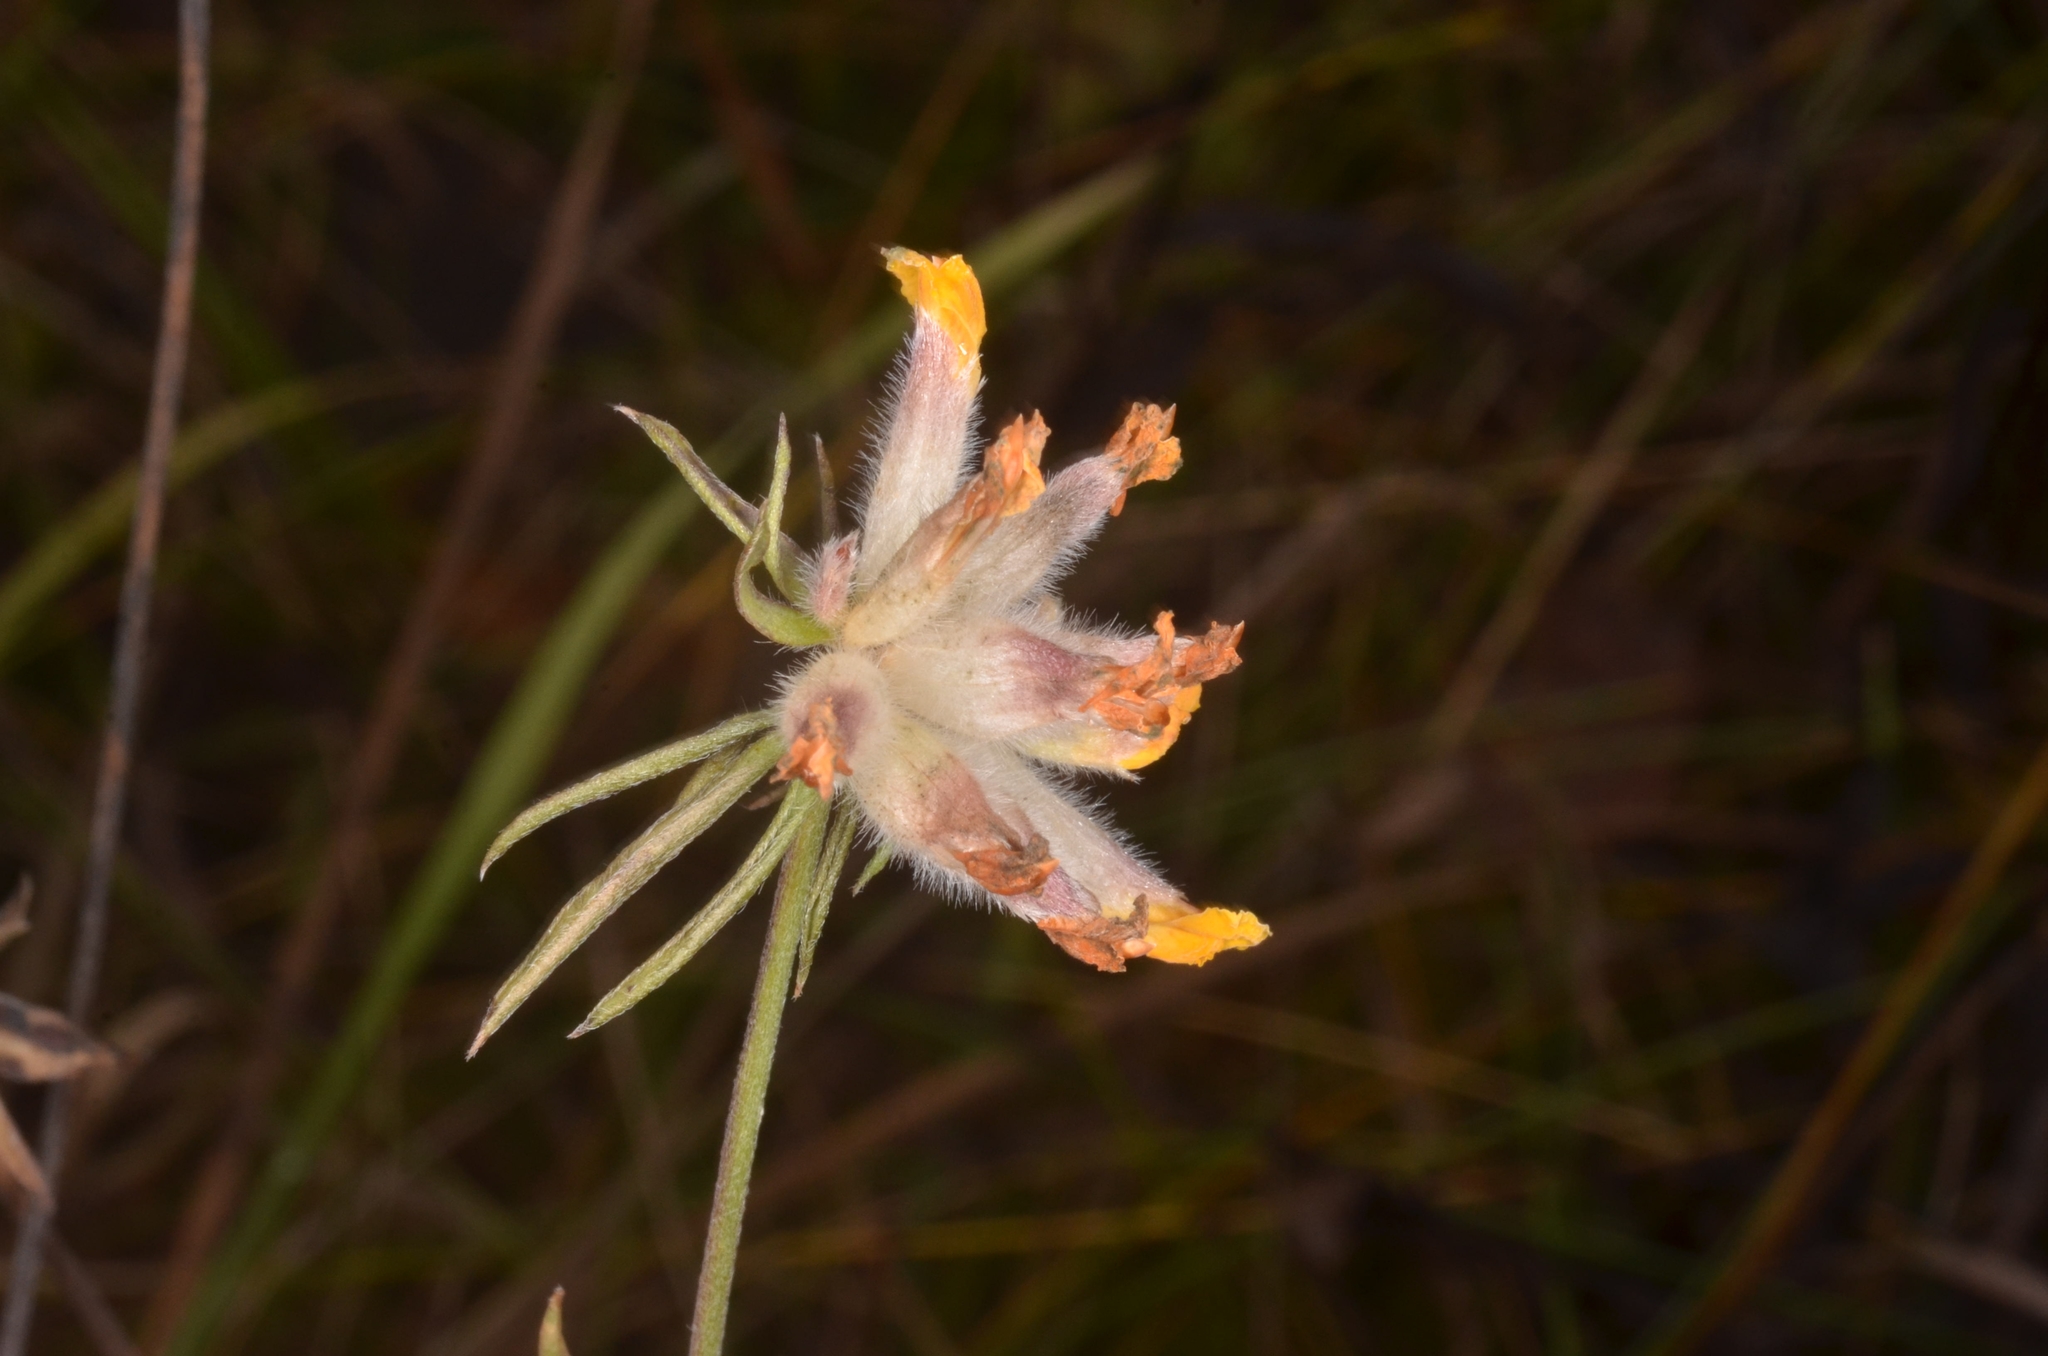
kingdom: Plantae
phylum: Tracheophyta
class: Magnoliopsida
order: Fabales
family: Fabaceae
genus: Anthyllis
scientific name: Anthyllis vulneraria
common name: Kidney vetch
